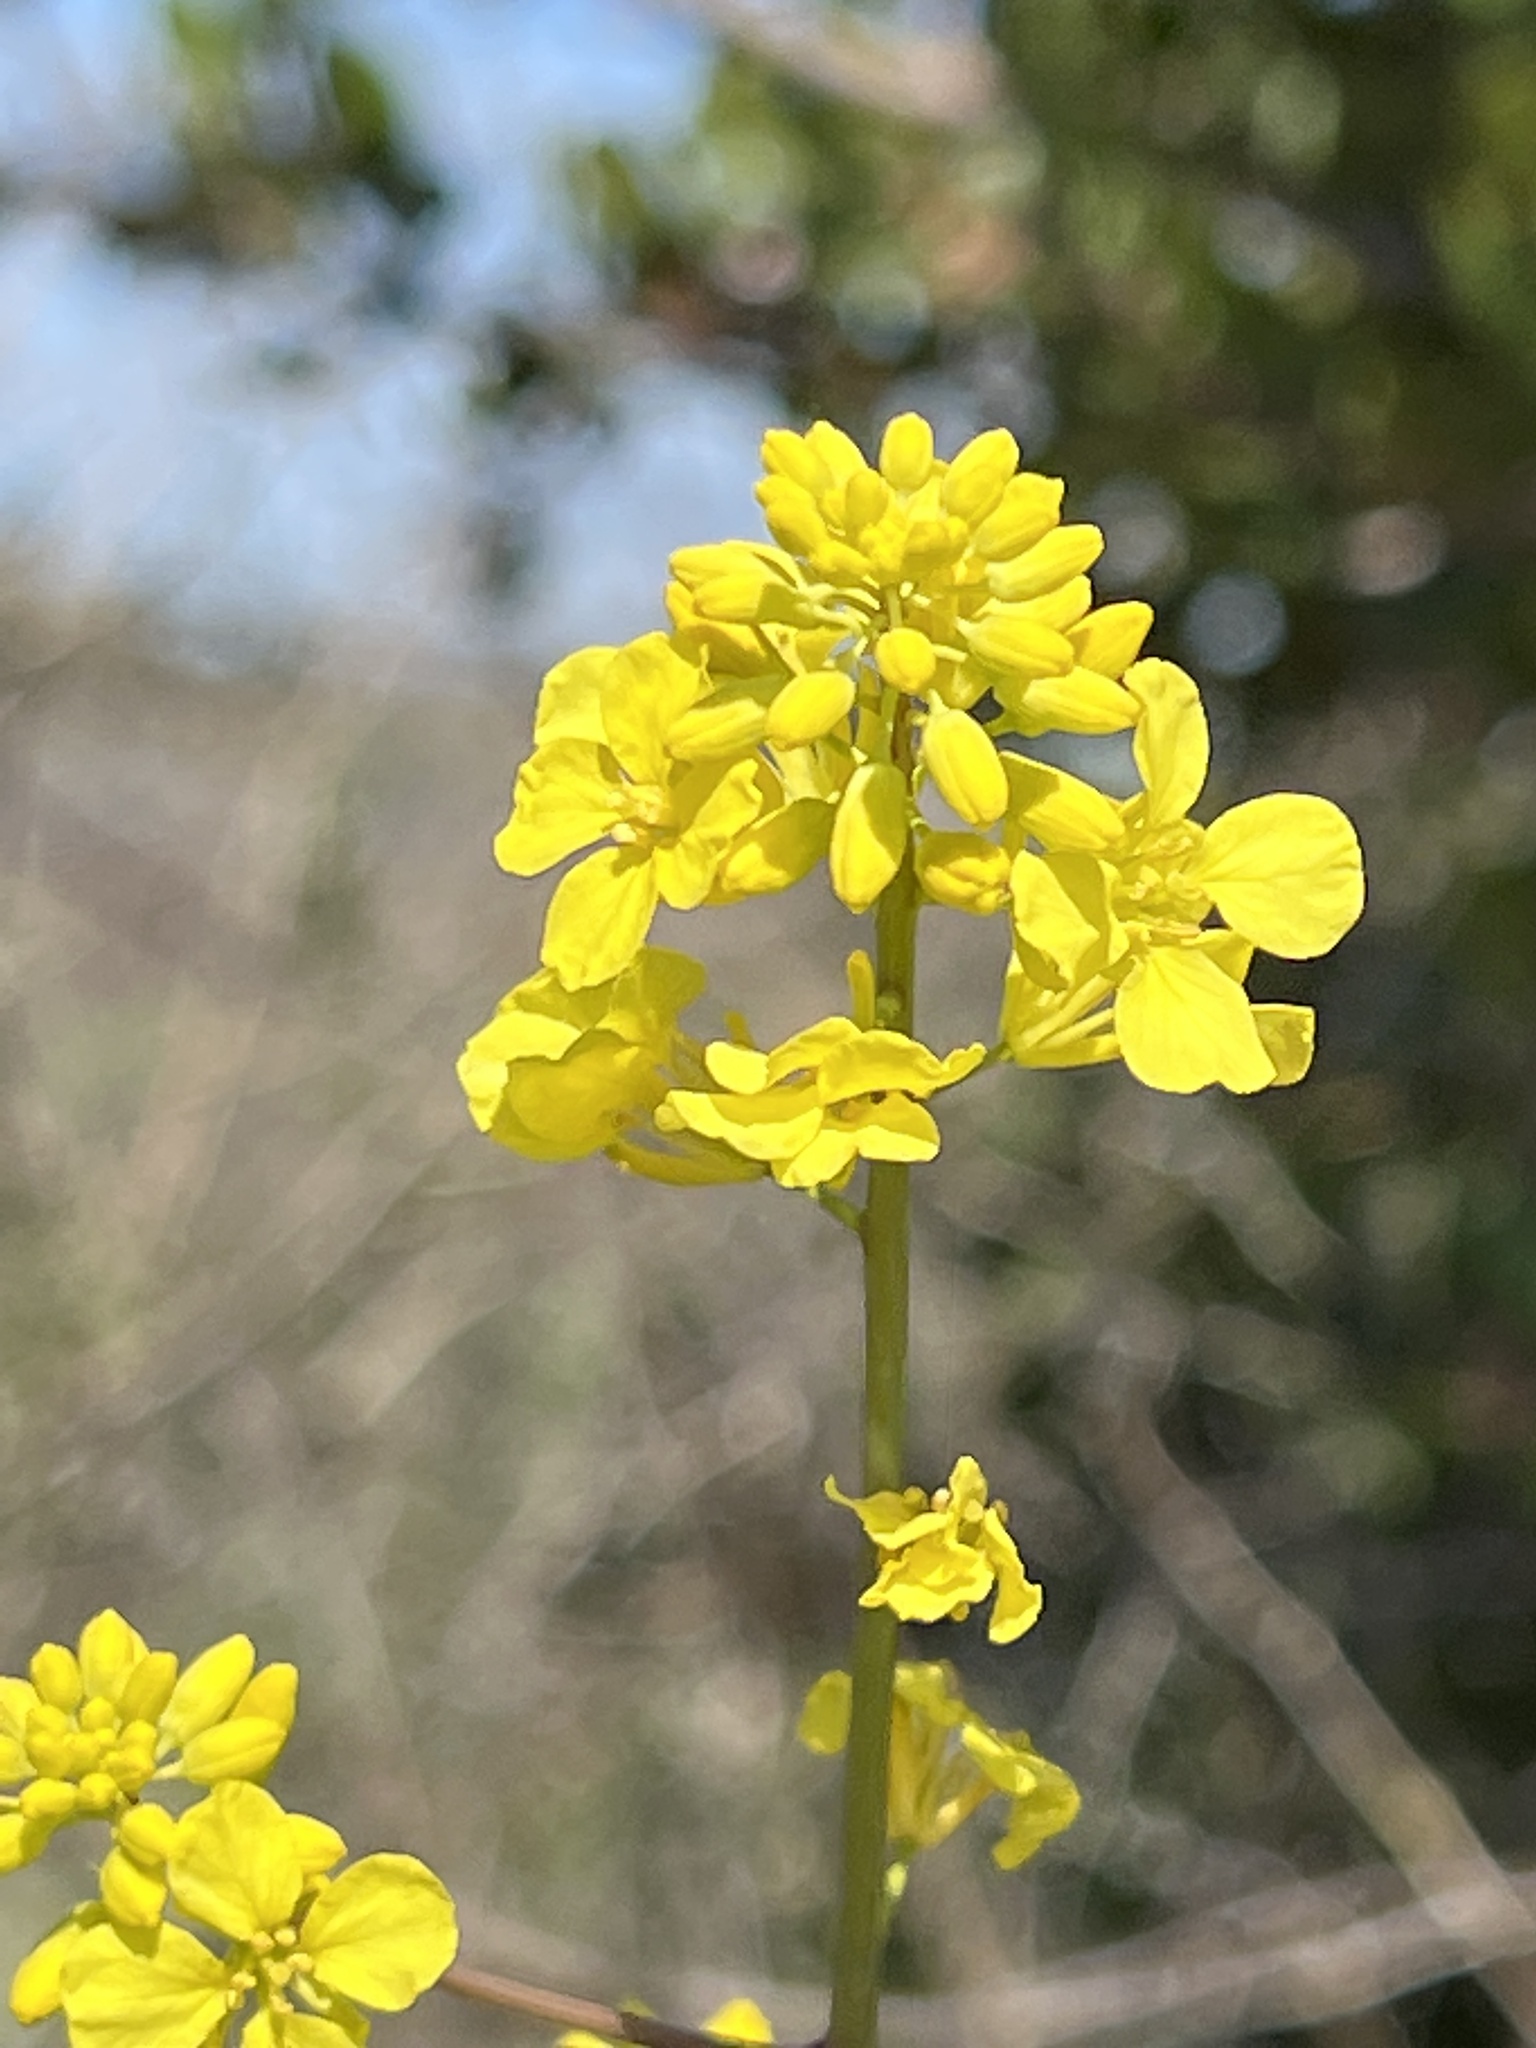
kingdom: Plantae
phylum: Tracheophyta
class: Magnoliopsida
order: Brassicales
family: Brassicaceae
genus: Hirschfeldia
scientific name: Hirschfeldia incana
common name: Hoary mustard
